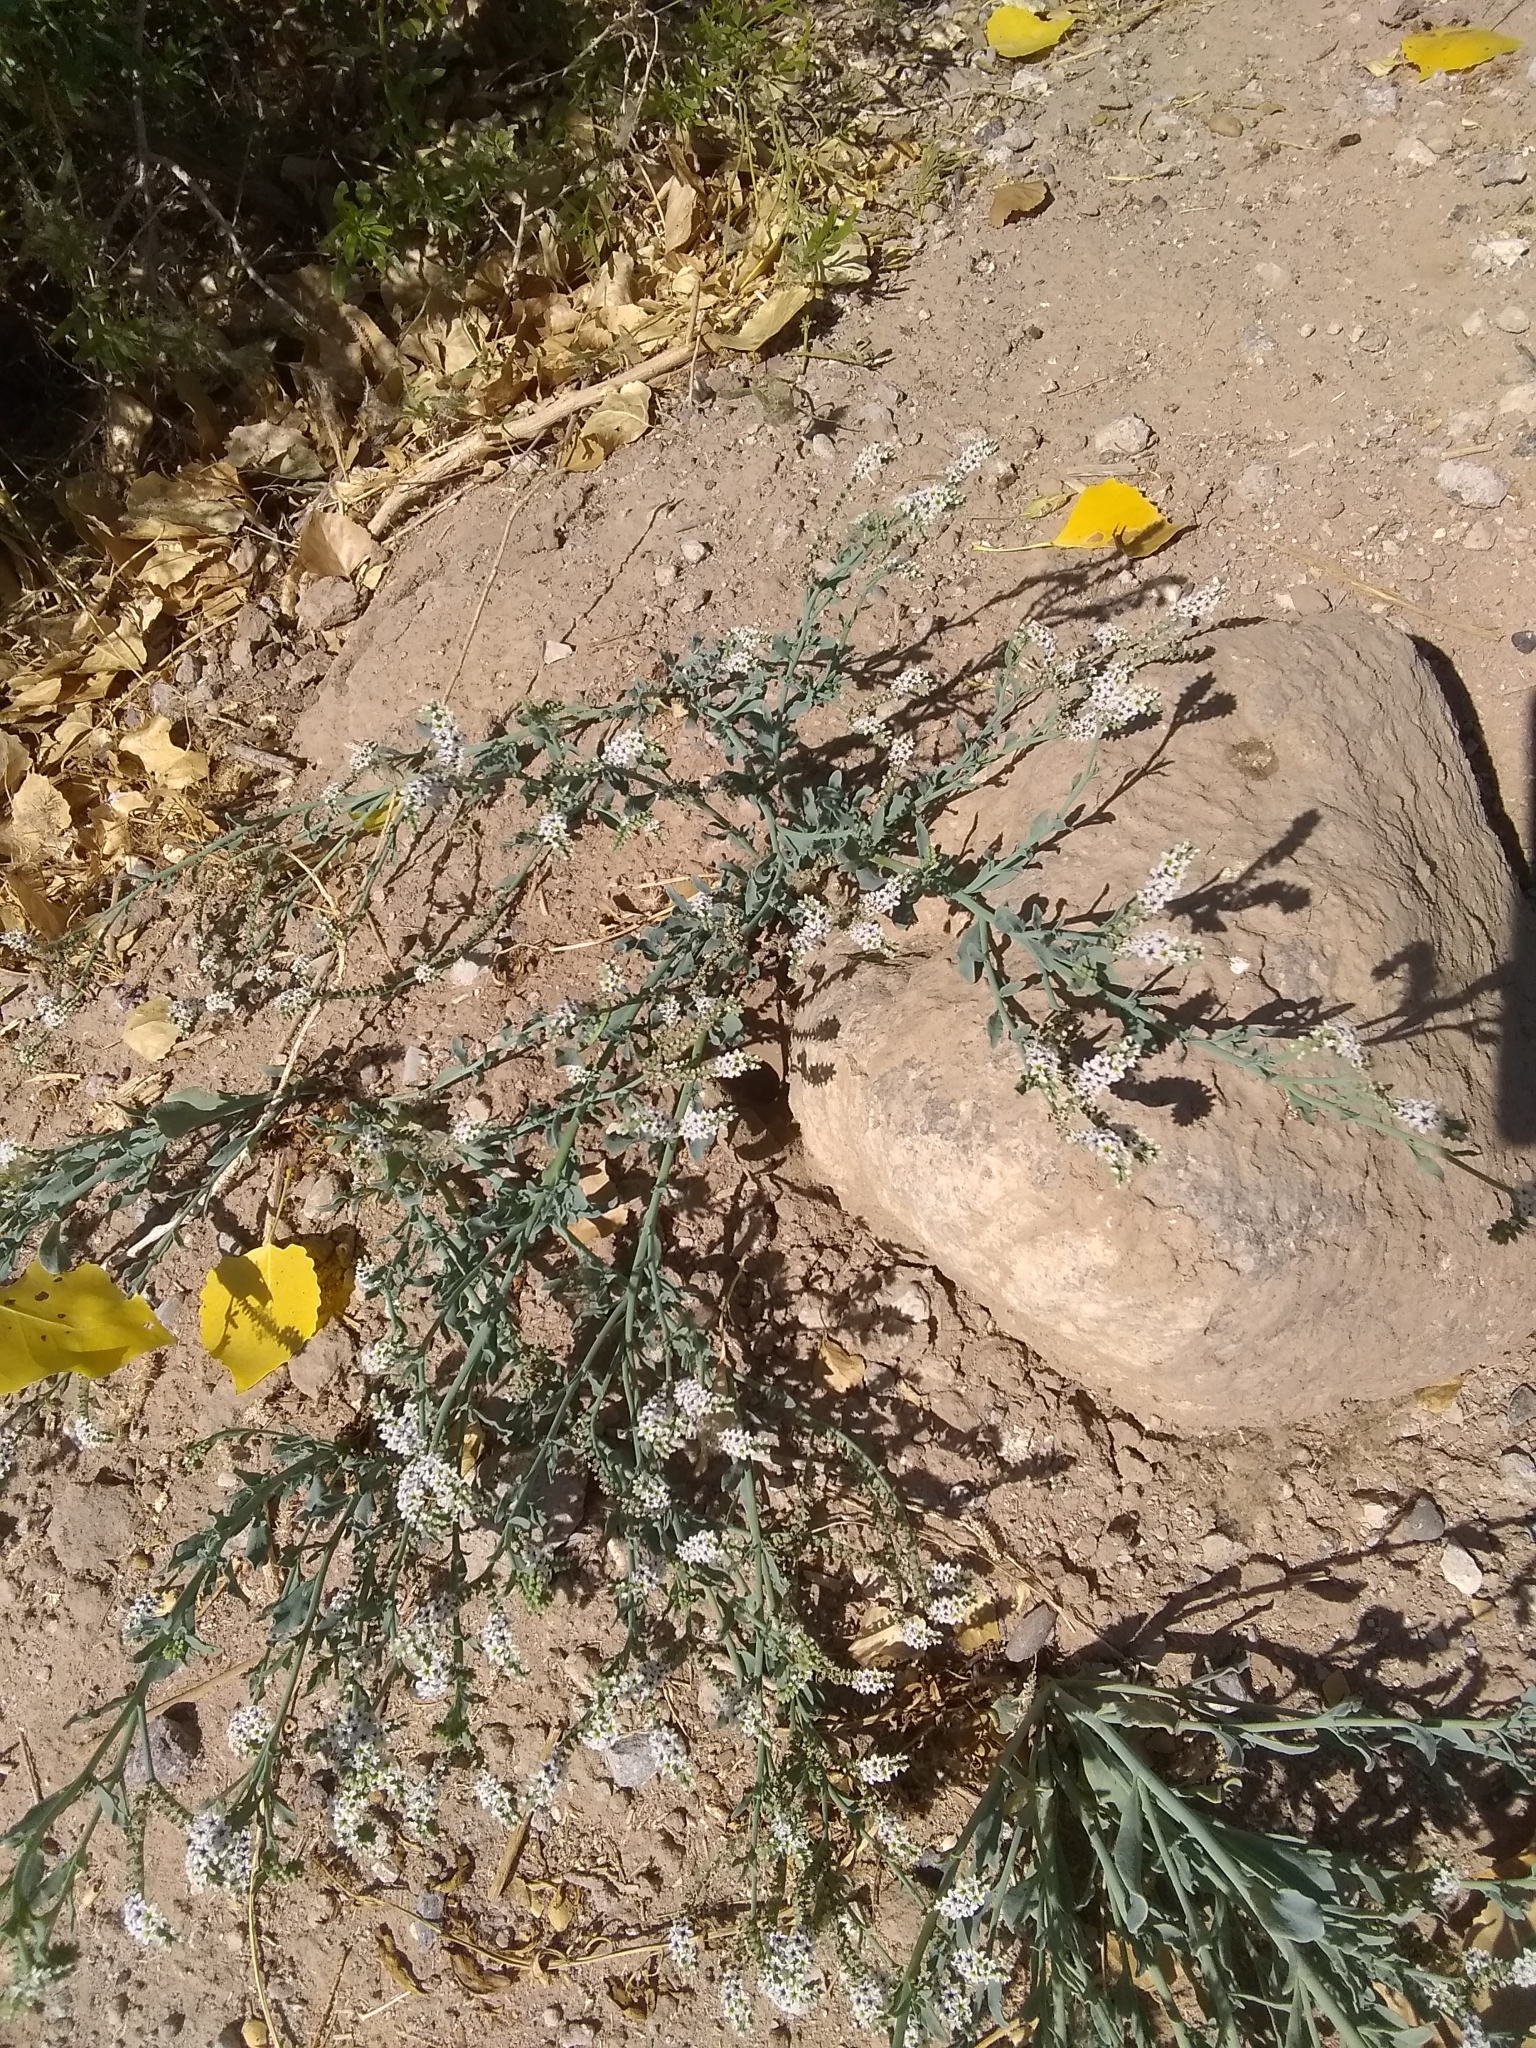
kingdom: Plantae
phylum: Tracheophyta
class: Magnoliopsida
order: Boraginales
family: Heliotropiaceae
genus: Heliotropium
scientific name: Heliotropium curassavicum
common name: Seaside heliotrope
